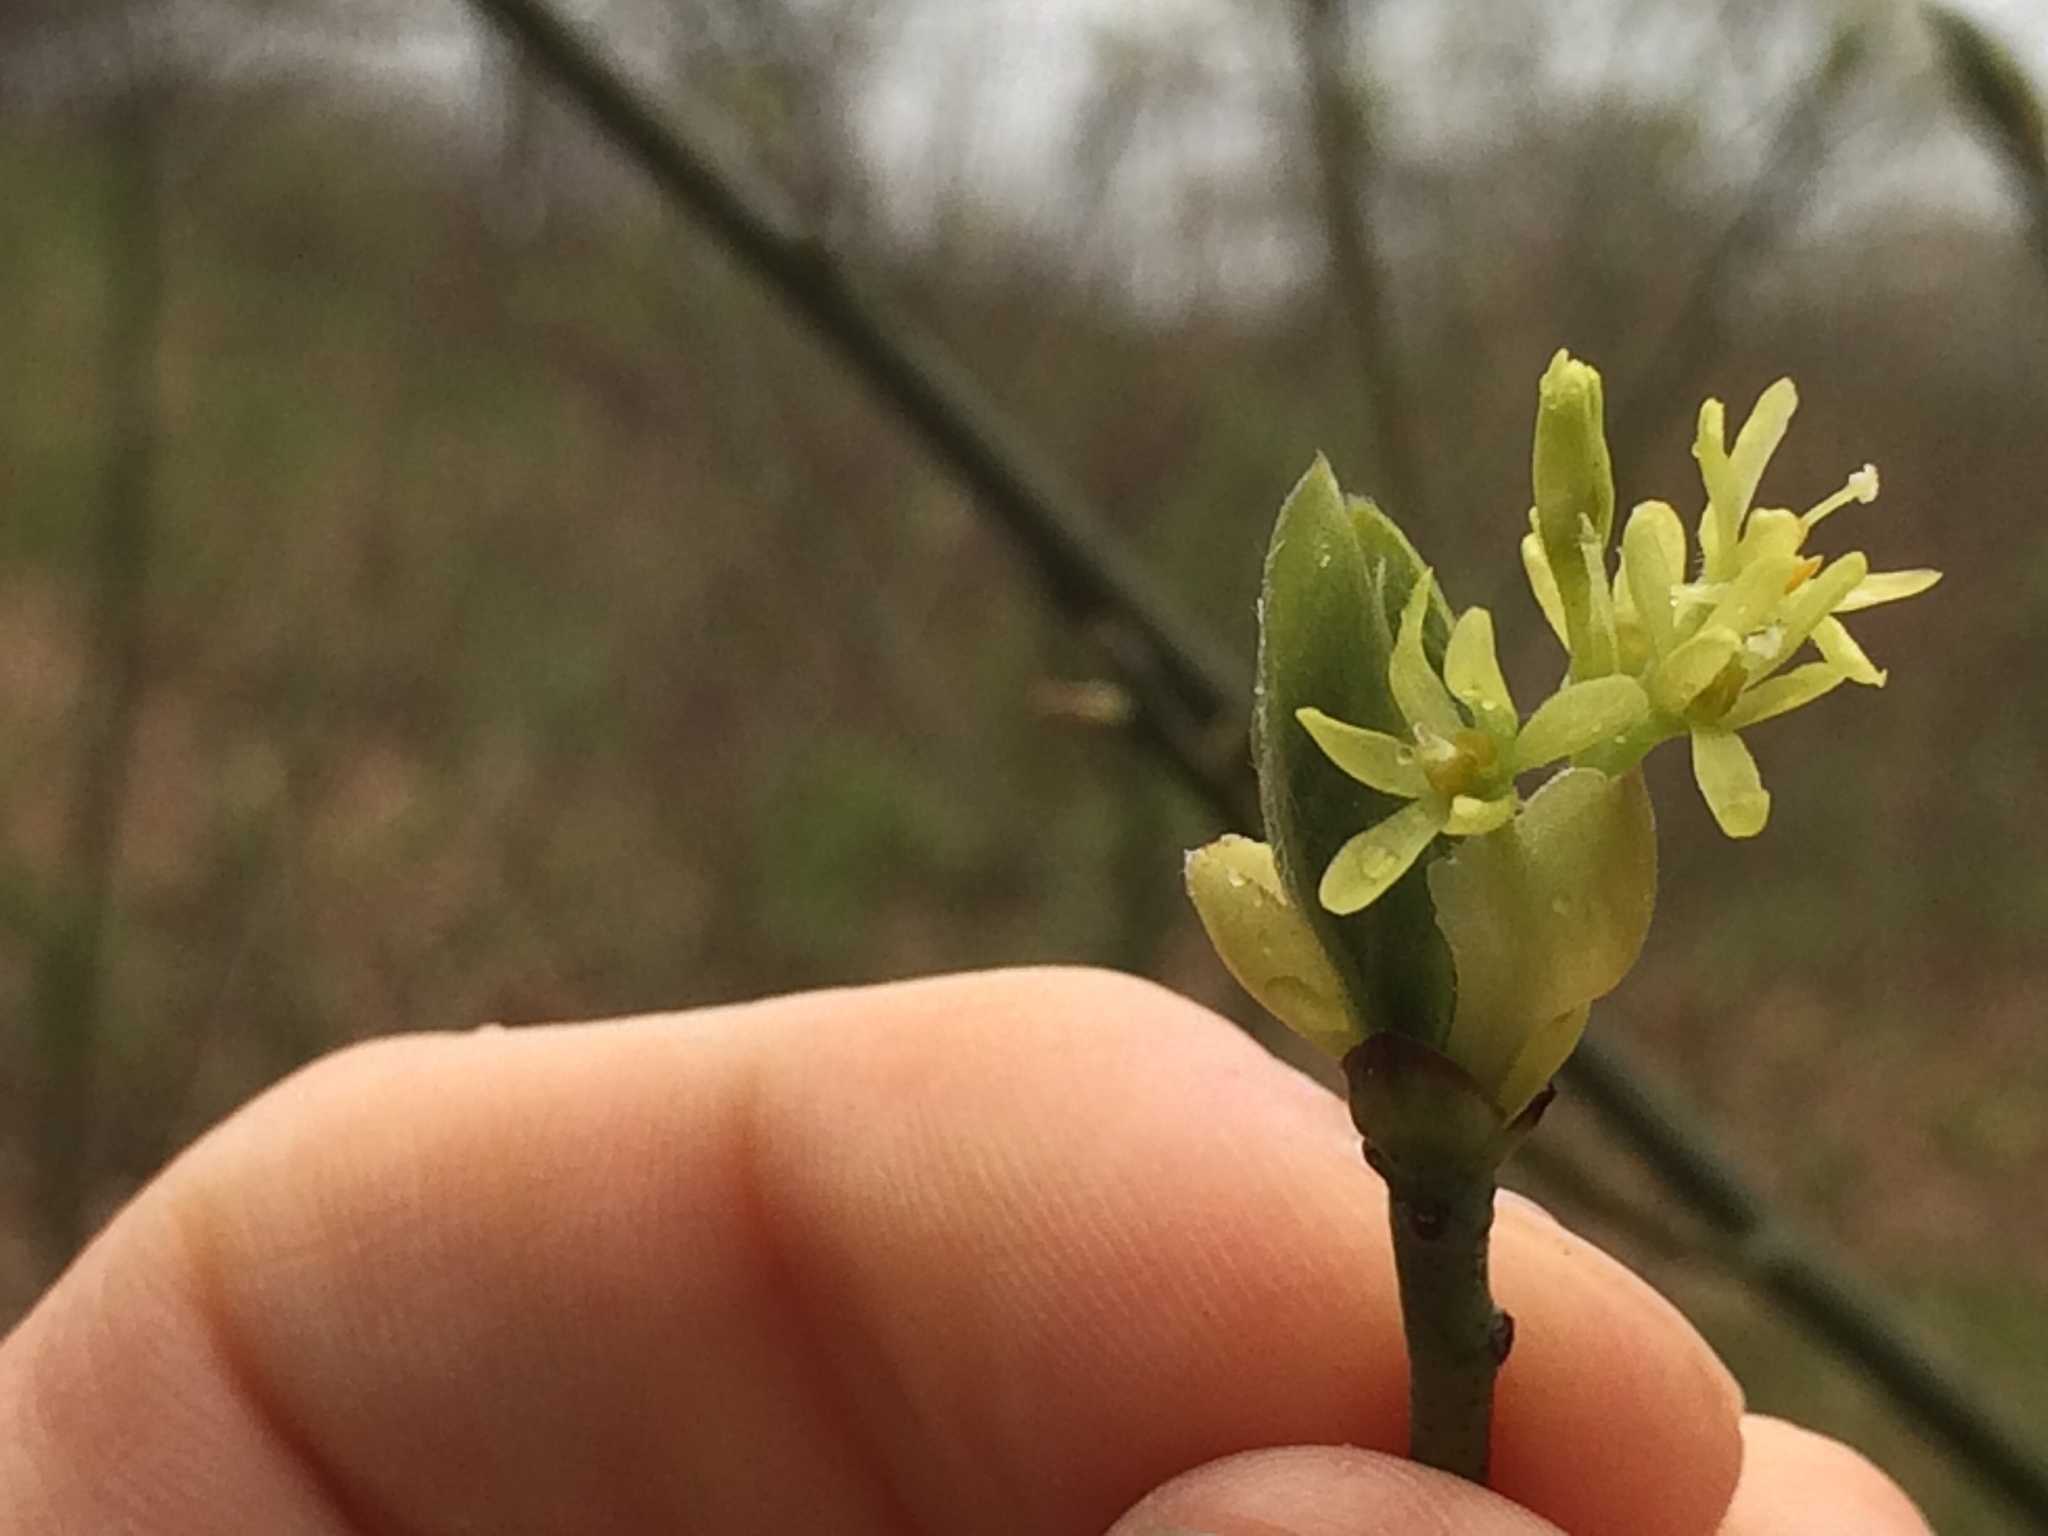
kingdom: Plantae
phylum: Tracheophyta
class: Magnoliopsida
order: Laurales
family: Lauraceae
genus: Sassafras
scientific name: Sassafras albidum
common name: Sassafras
